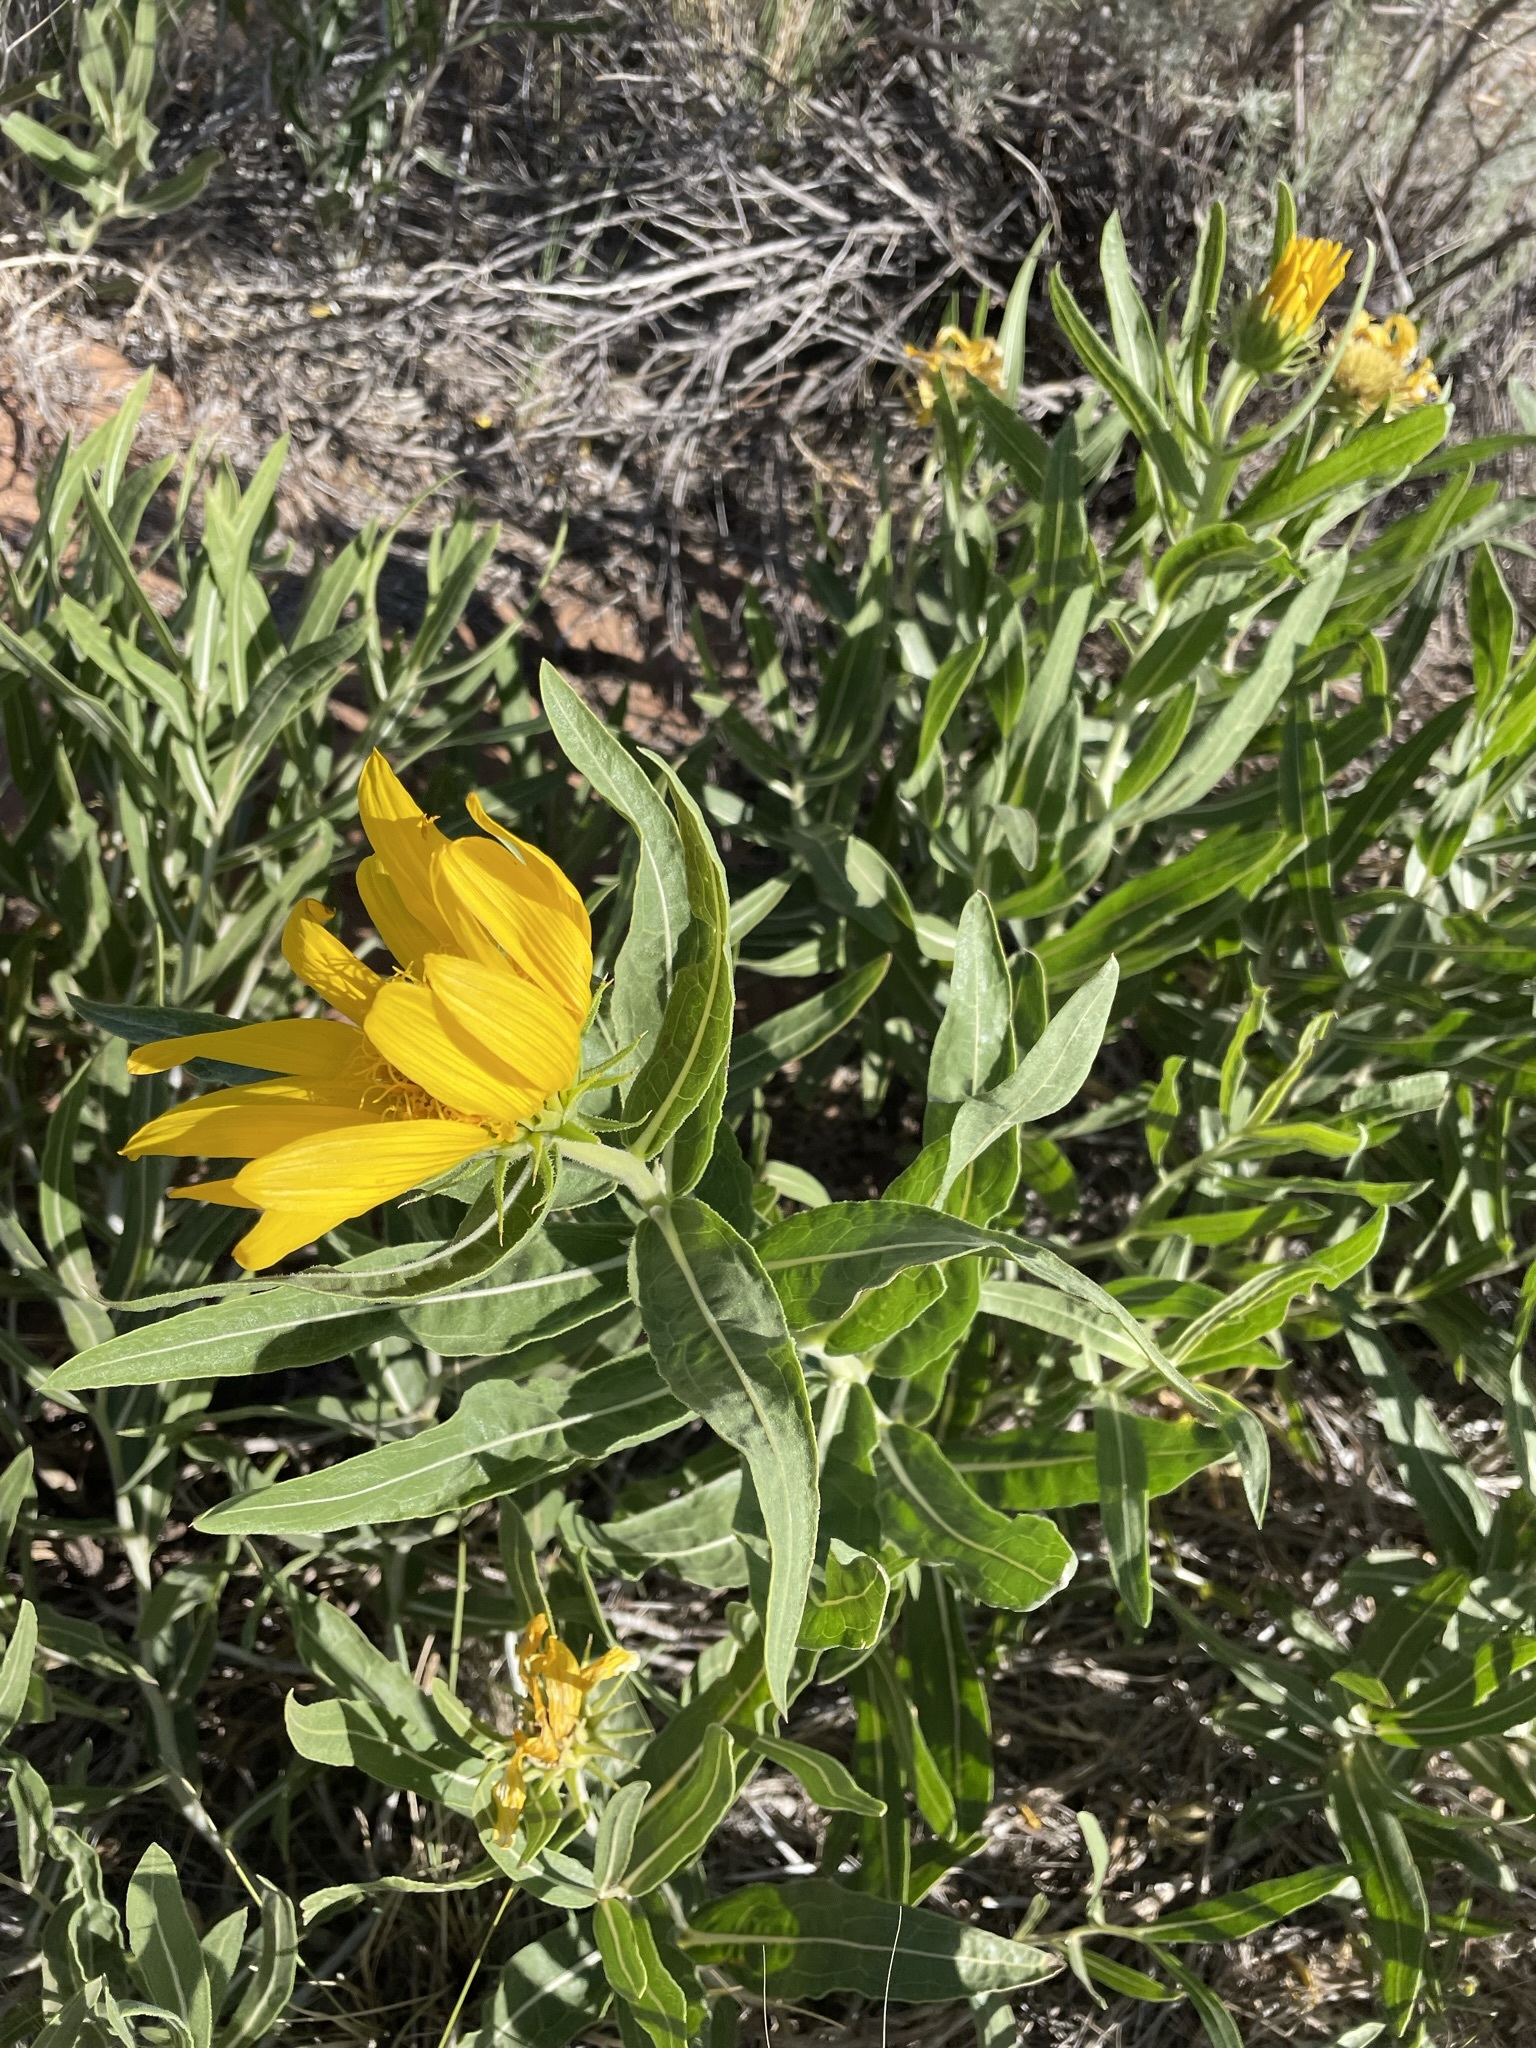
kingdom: Plantae
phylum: Tracheophyta
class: Magnoliopsida
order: Asterales
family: Asteraceae
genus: Scabrethia
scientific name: Scabrethia scabra
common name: Rough mules's-ears
